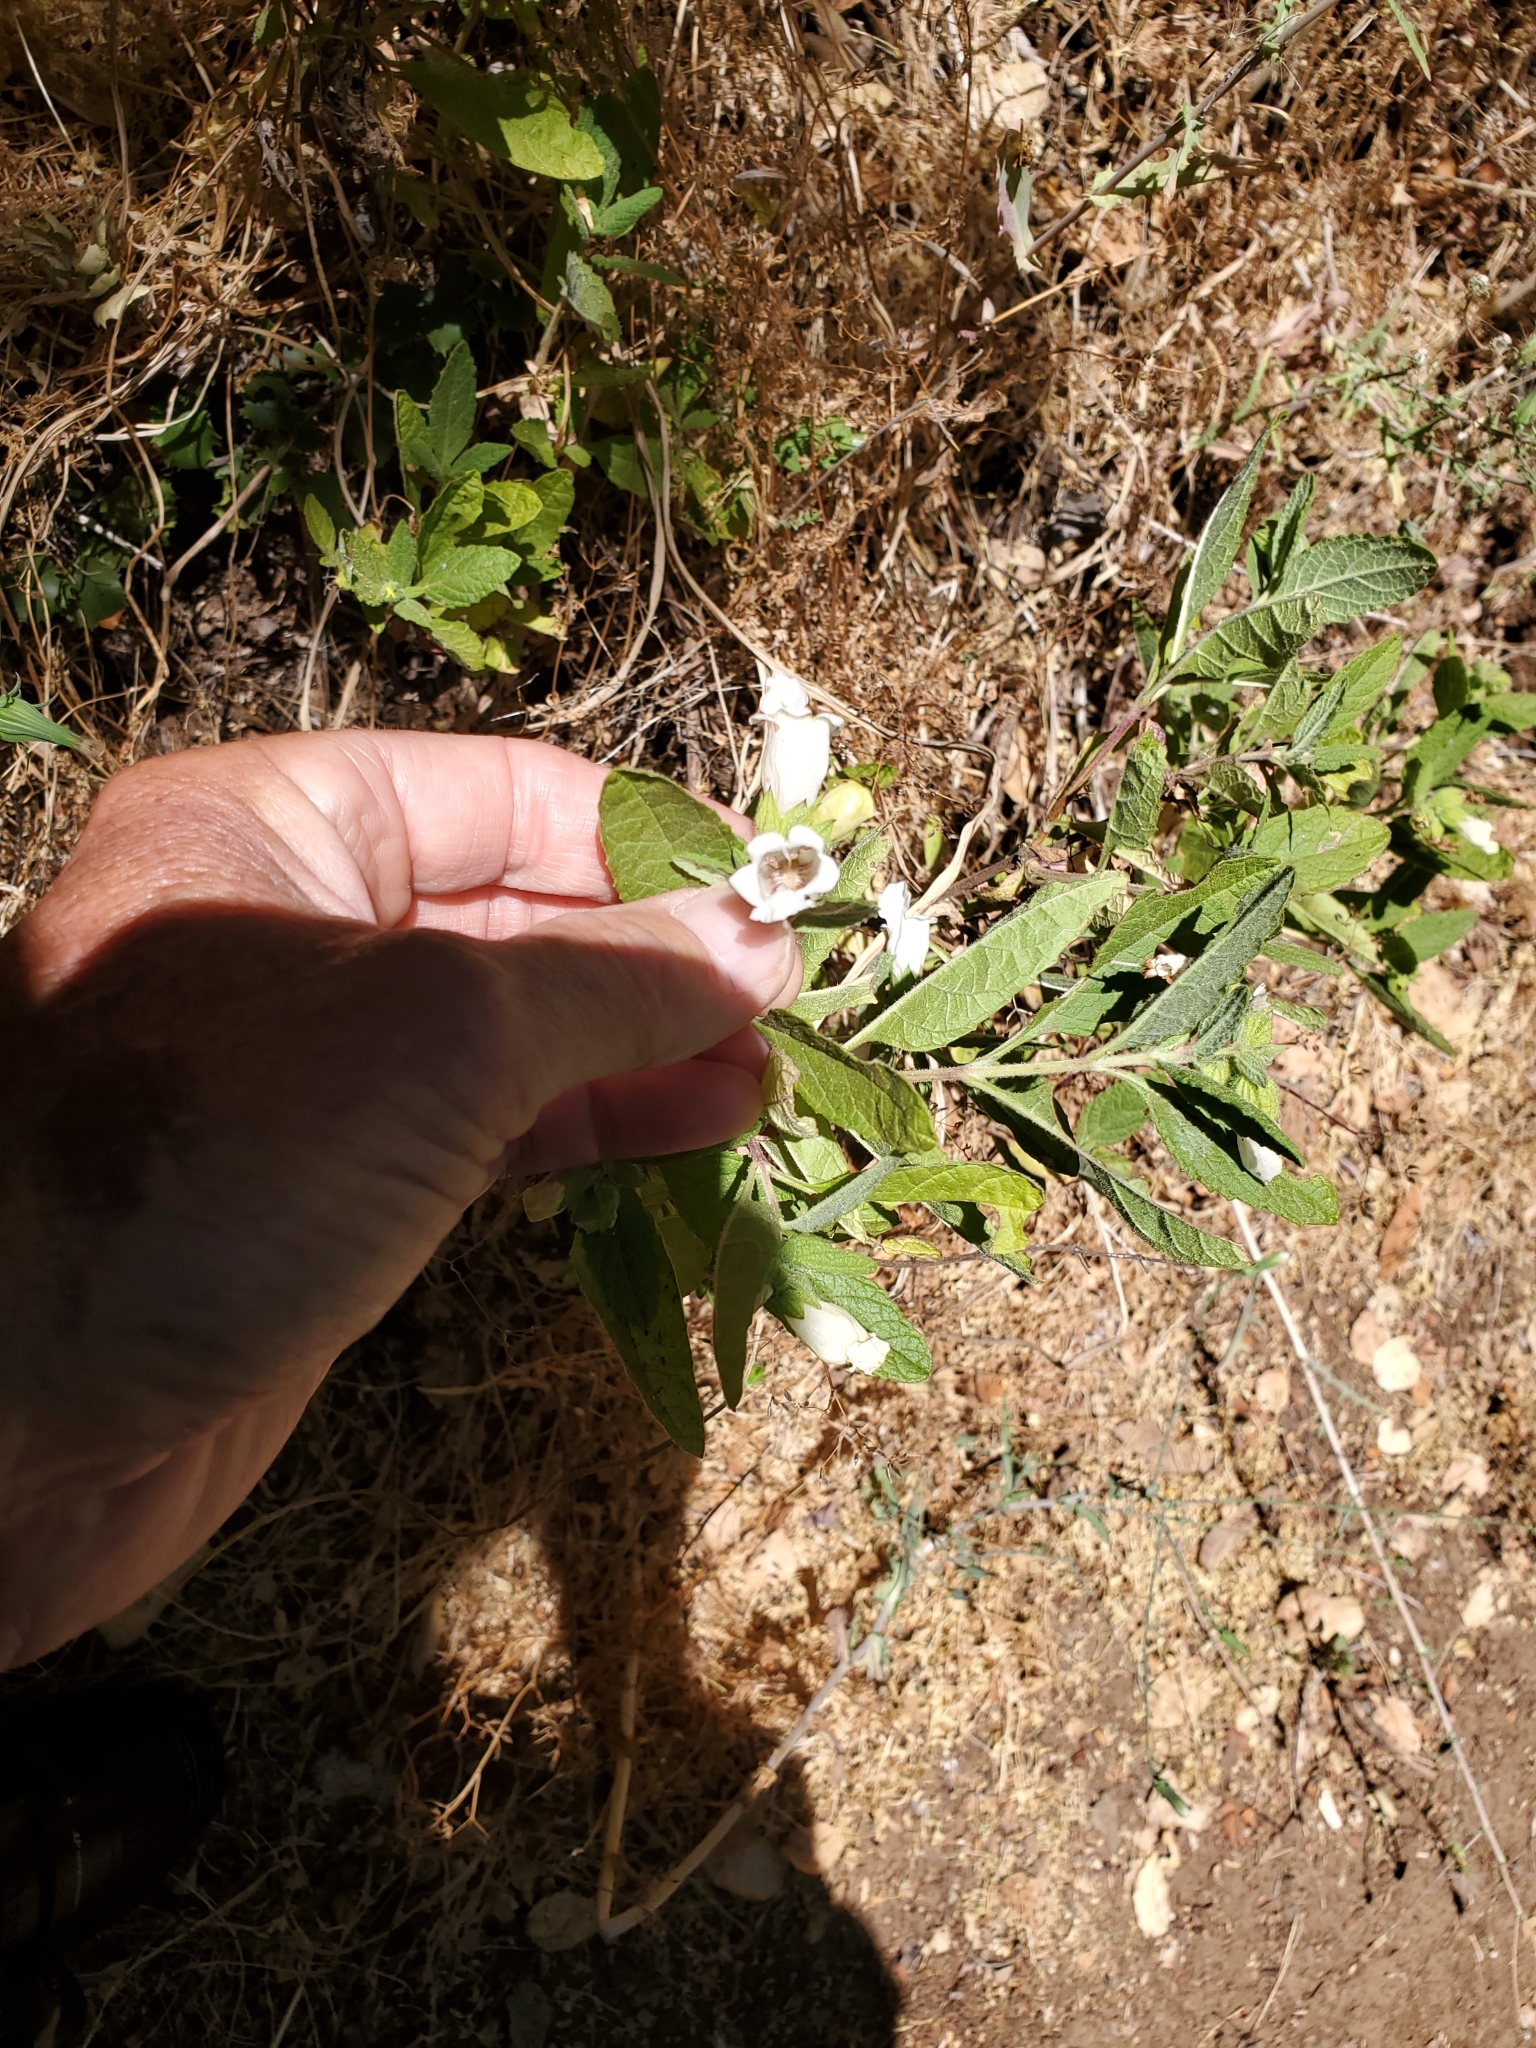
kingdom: Plantae
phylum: Tracheophyta
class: Magnoliopsida
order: Lamiales
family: Lamiaceae
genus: Lepechinia
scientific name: Lepechinia calycina
